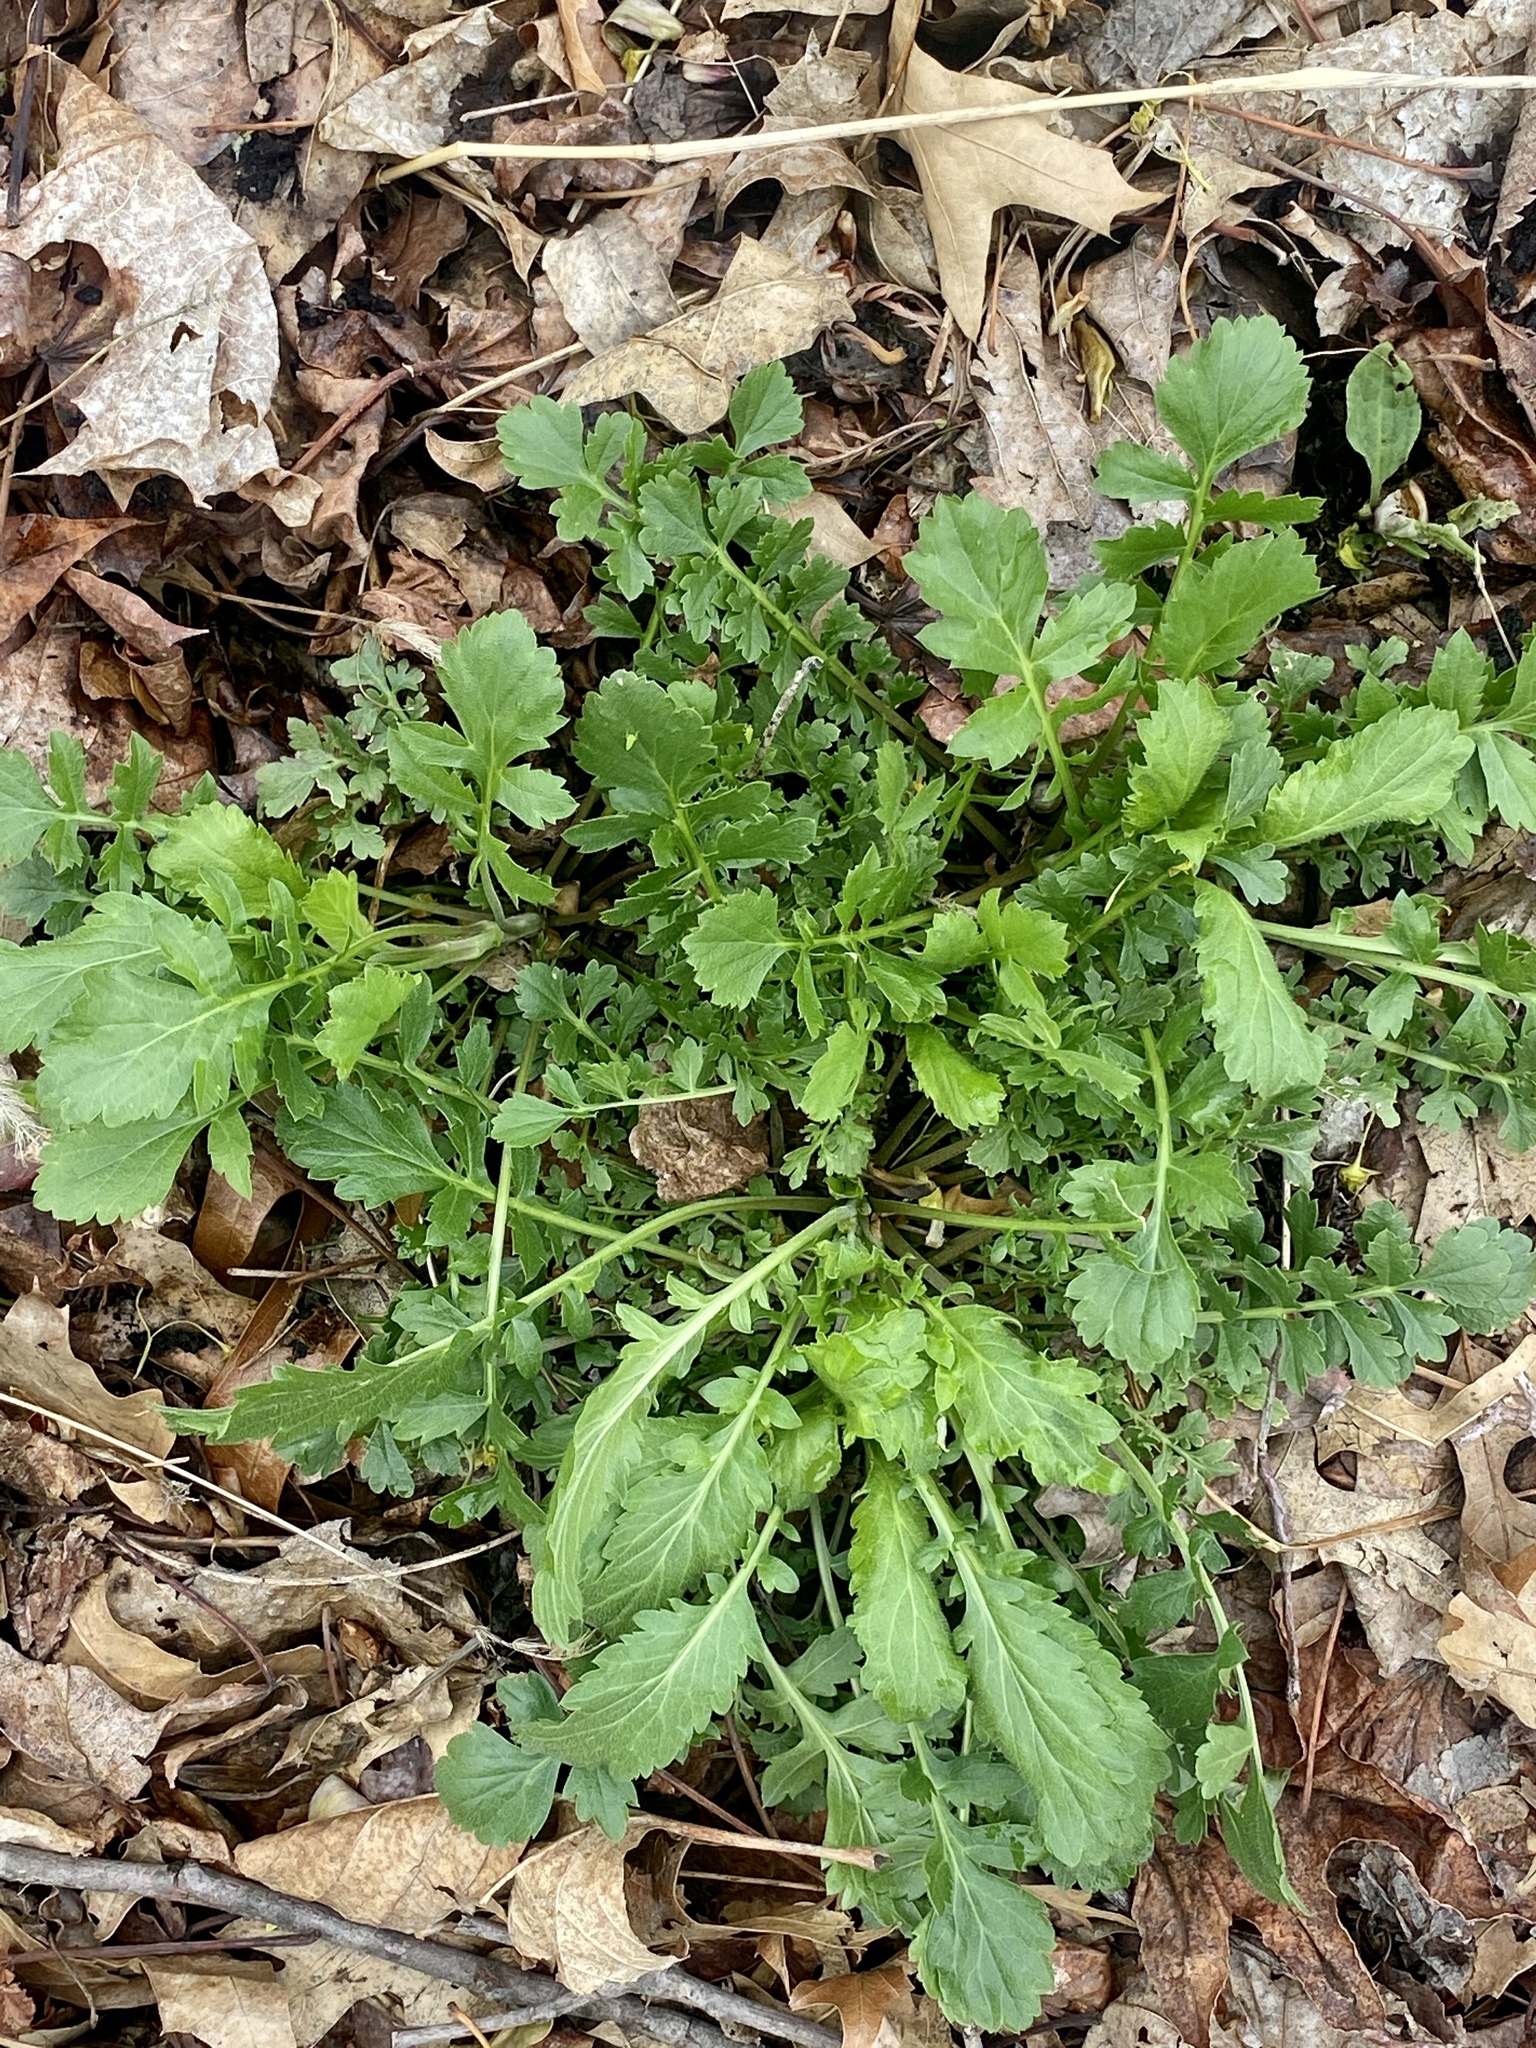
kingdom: Plantae
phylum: Tracheophyta
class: Magnoliopsida
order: Brassicales
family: Brassicaceae
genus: Lepidium
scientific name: Lepidium virginicum
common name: Least pepperwort
